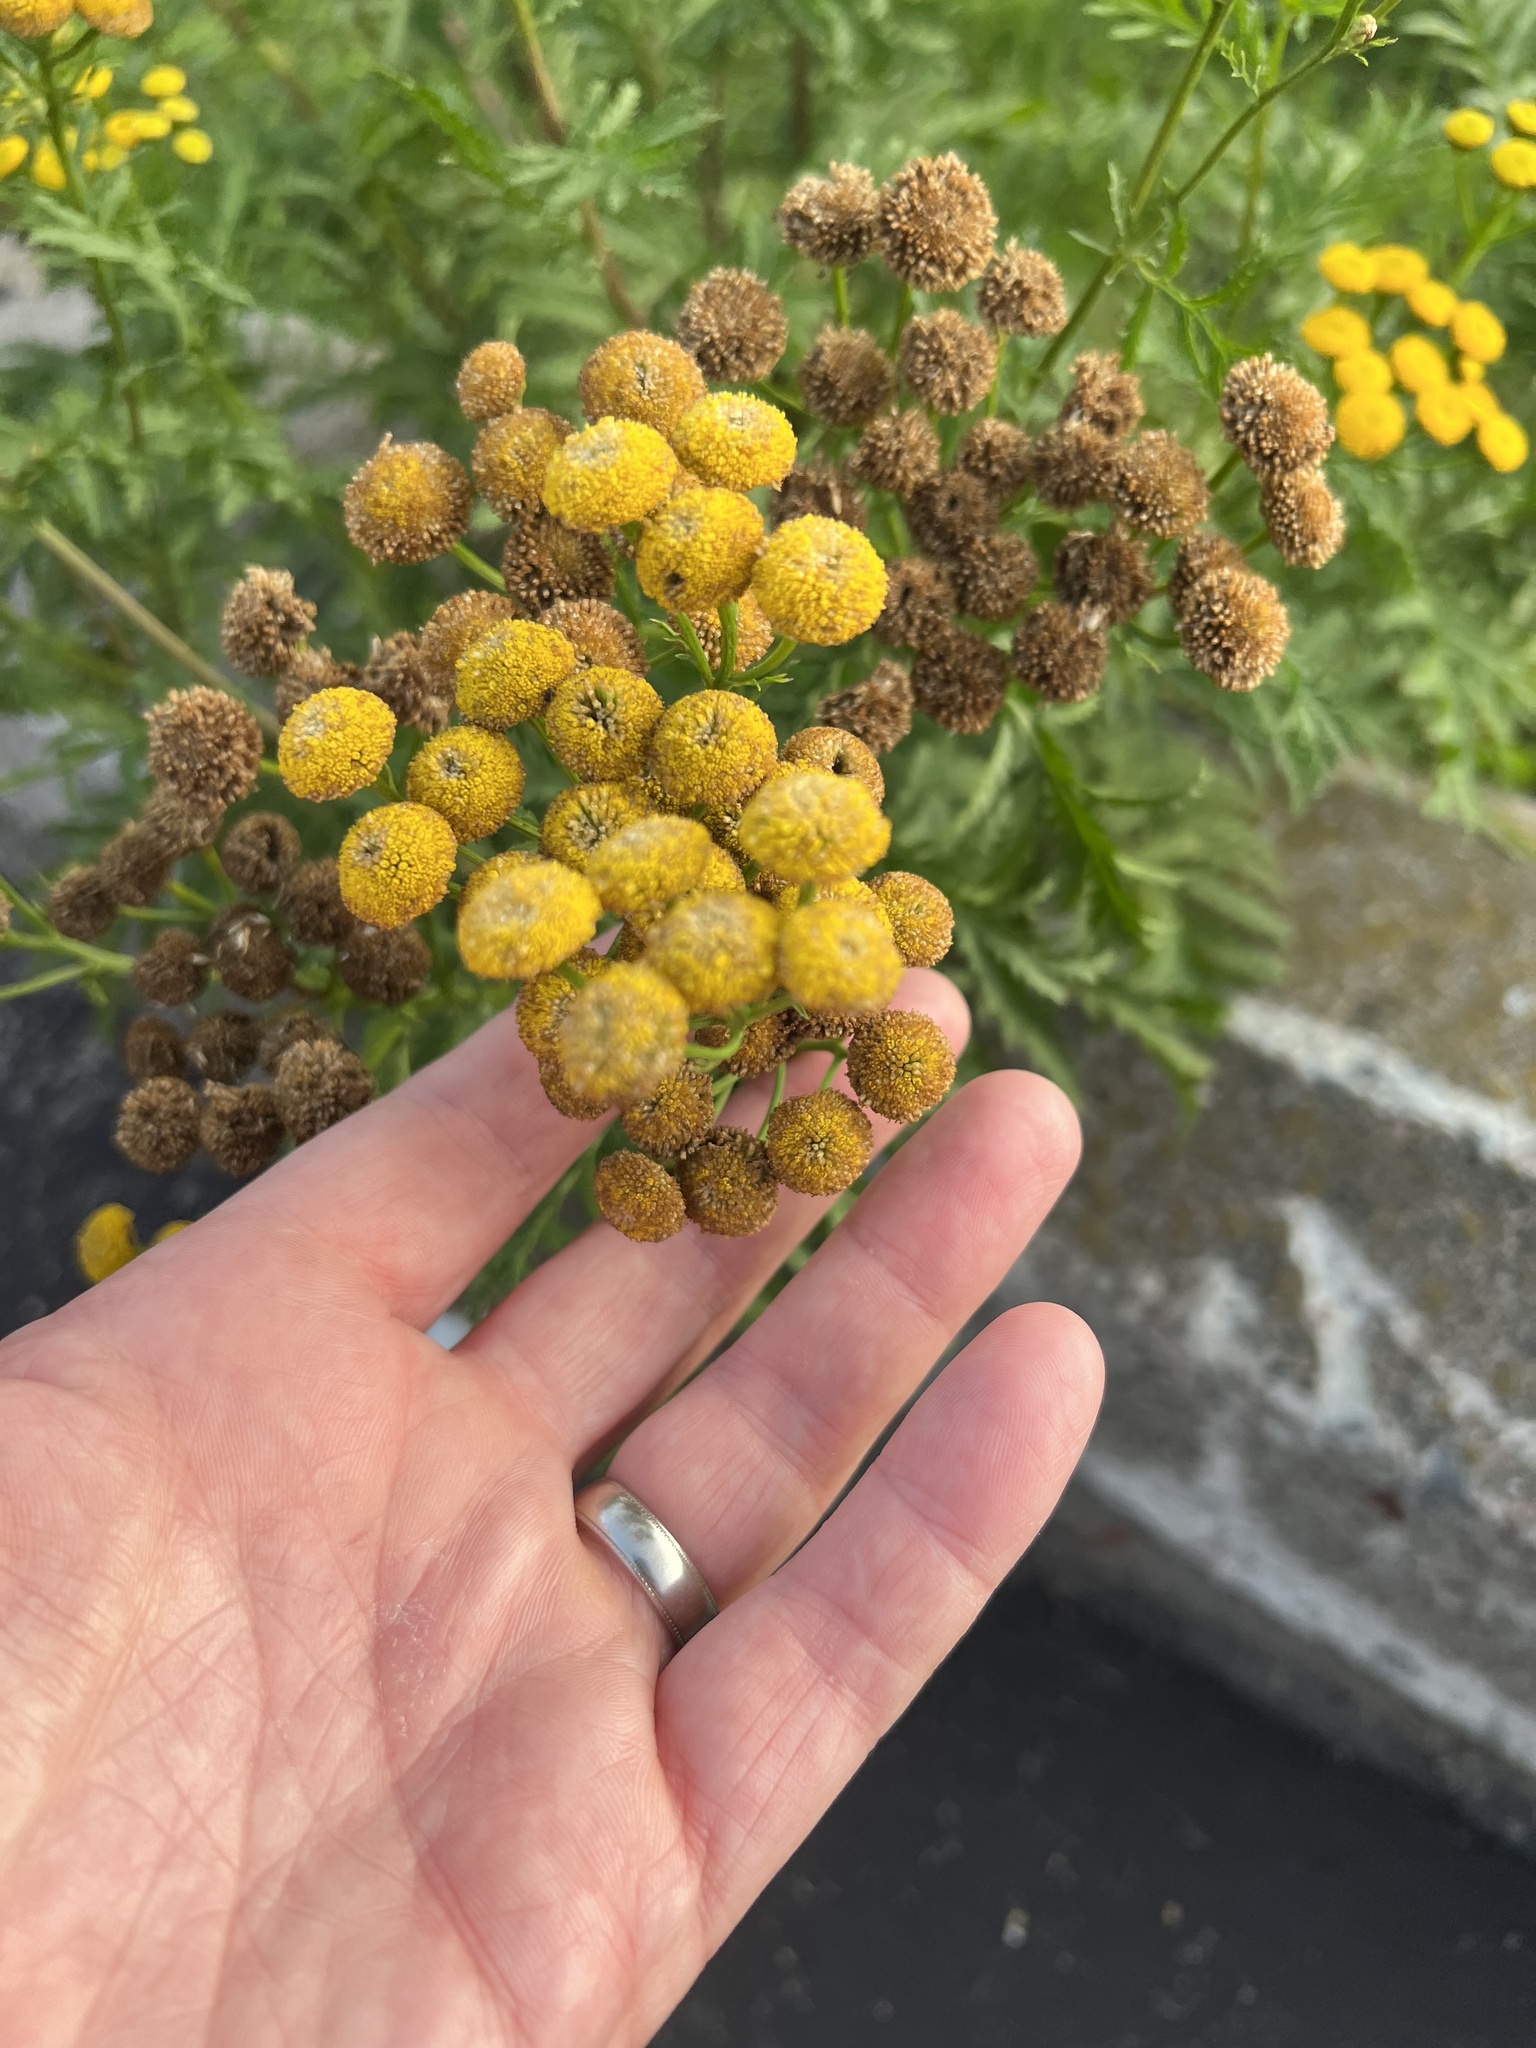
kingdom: Plantae
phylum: Tracheophyta
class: Magnoliopsida
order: Asterales
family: Asteraceae
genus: Tanacetum
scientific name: Tanacetum vulgare
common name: Common tansy
